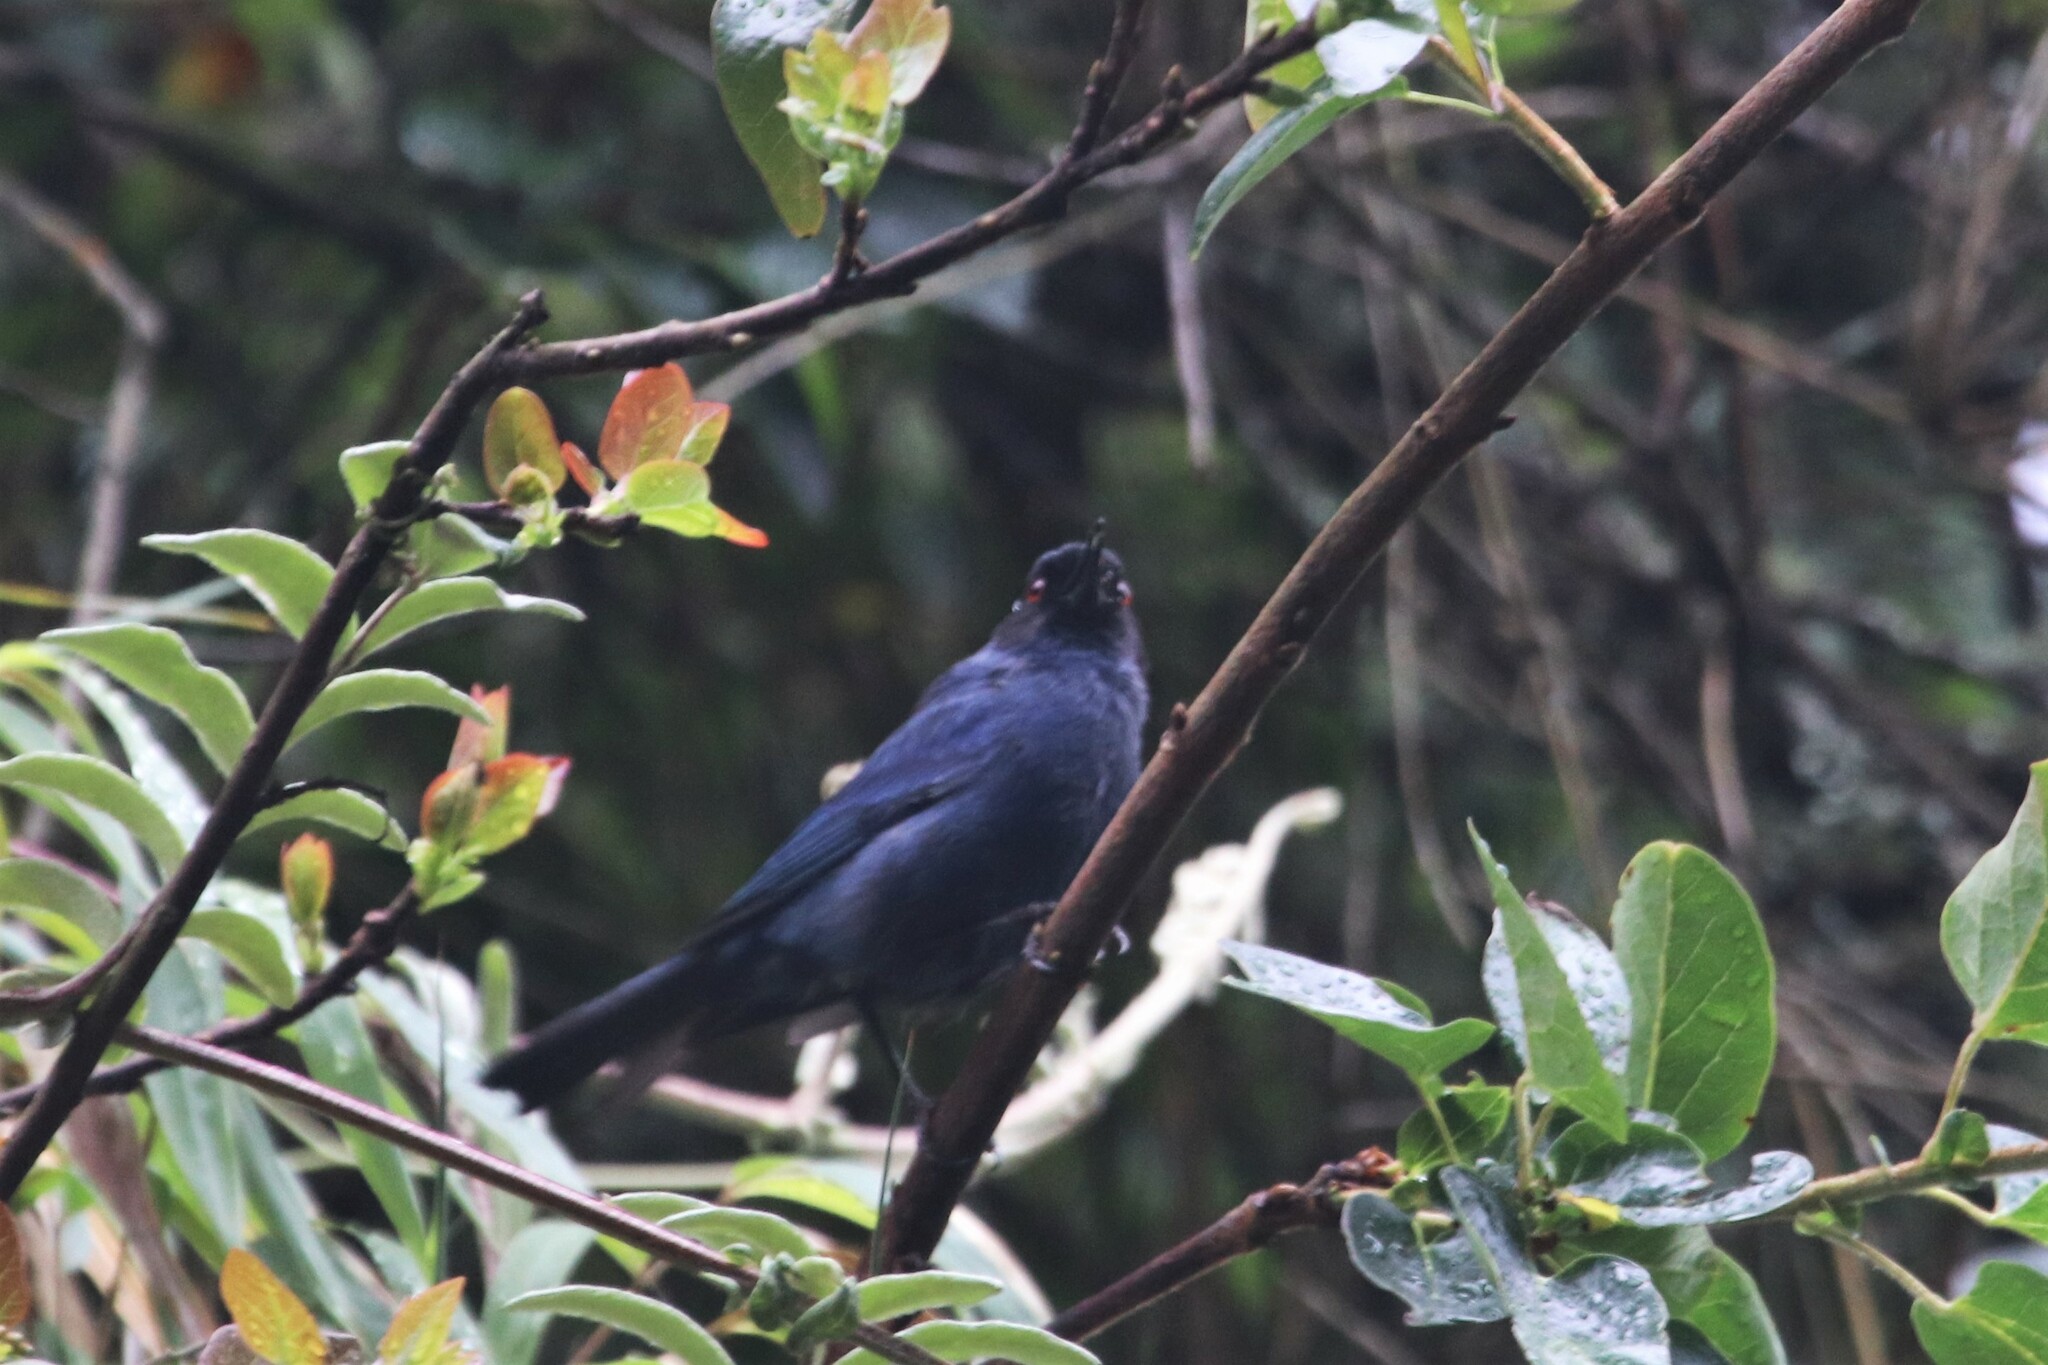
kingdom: Animalia
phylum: Chordata
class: Aves
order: Passeriformes
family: Thraupidae
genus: Diglossa
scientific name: Diglossa cyanea
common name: Masked flowerpiercer
